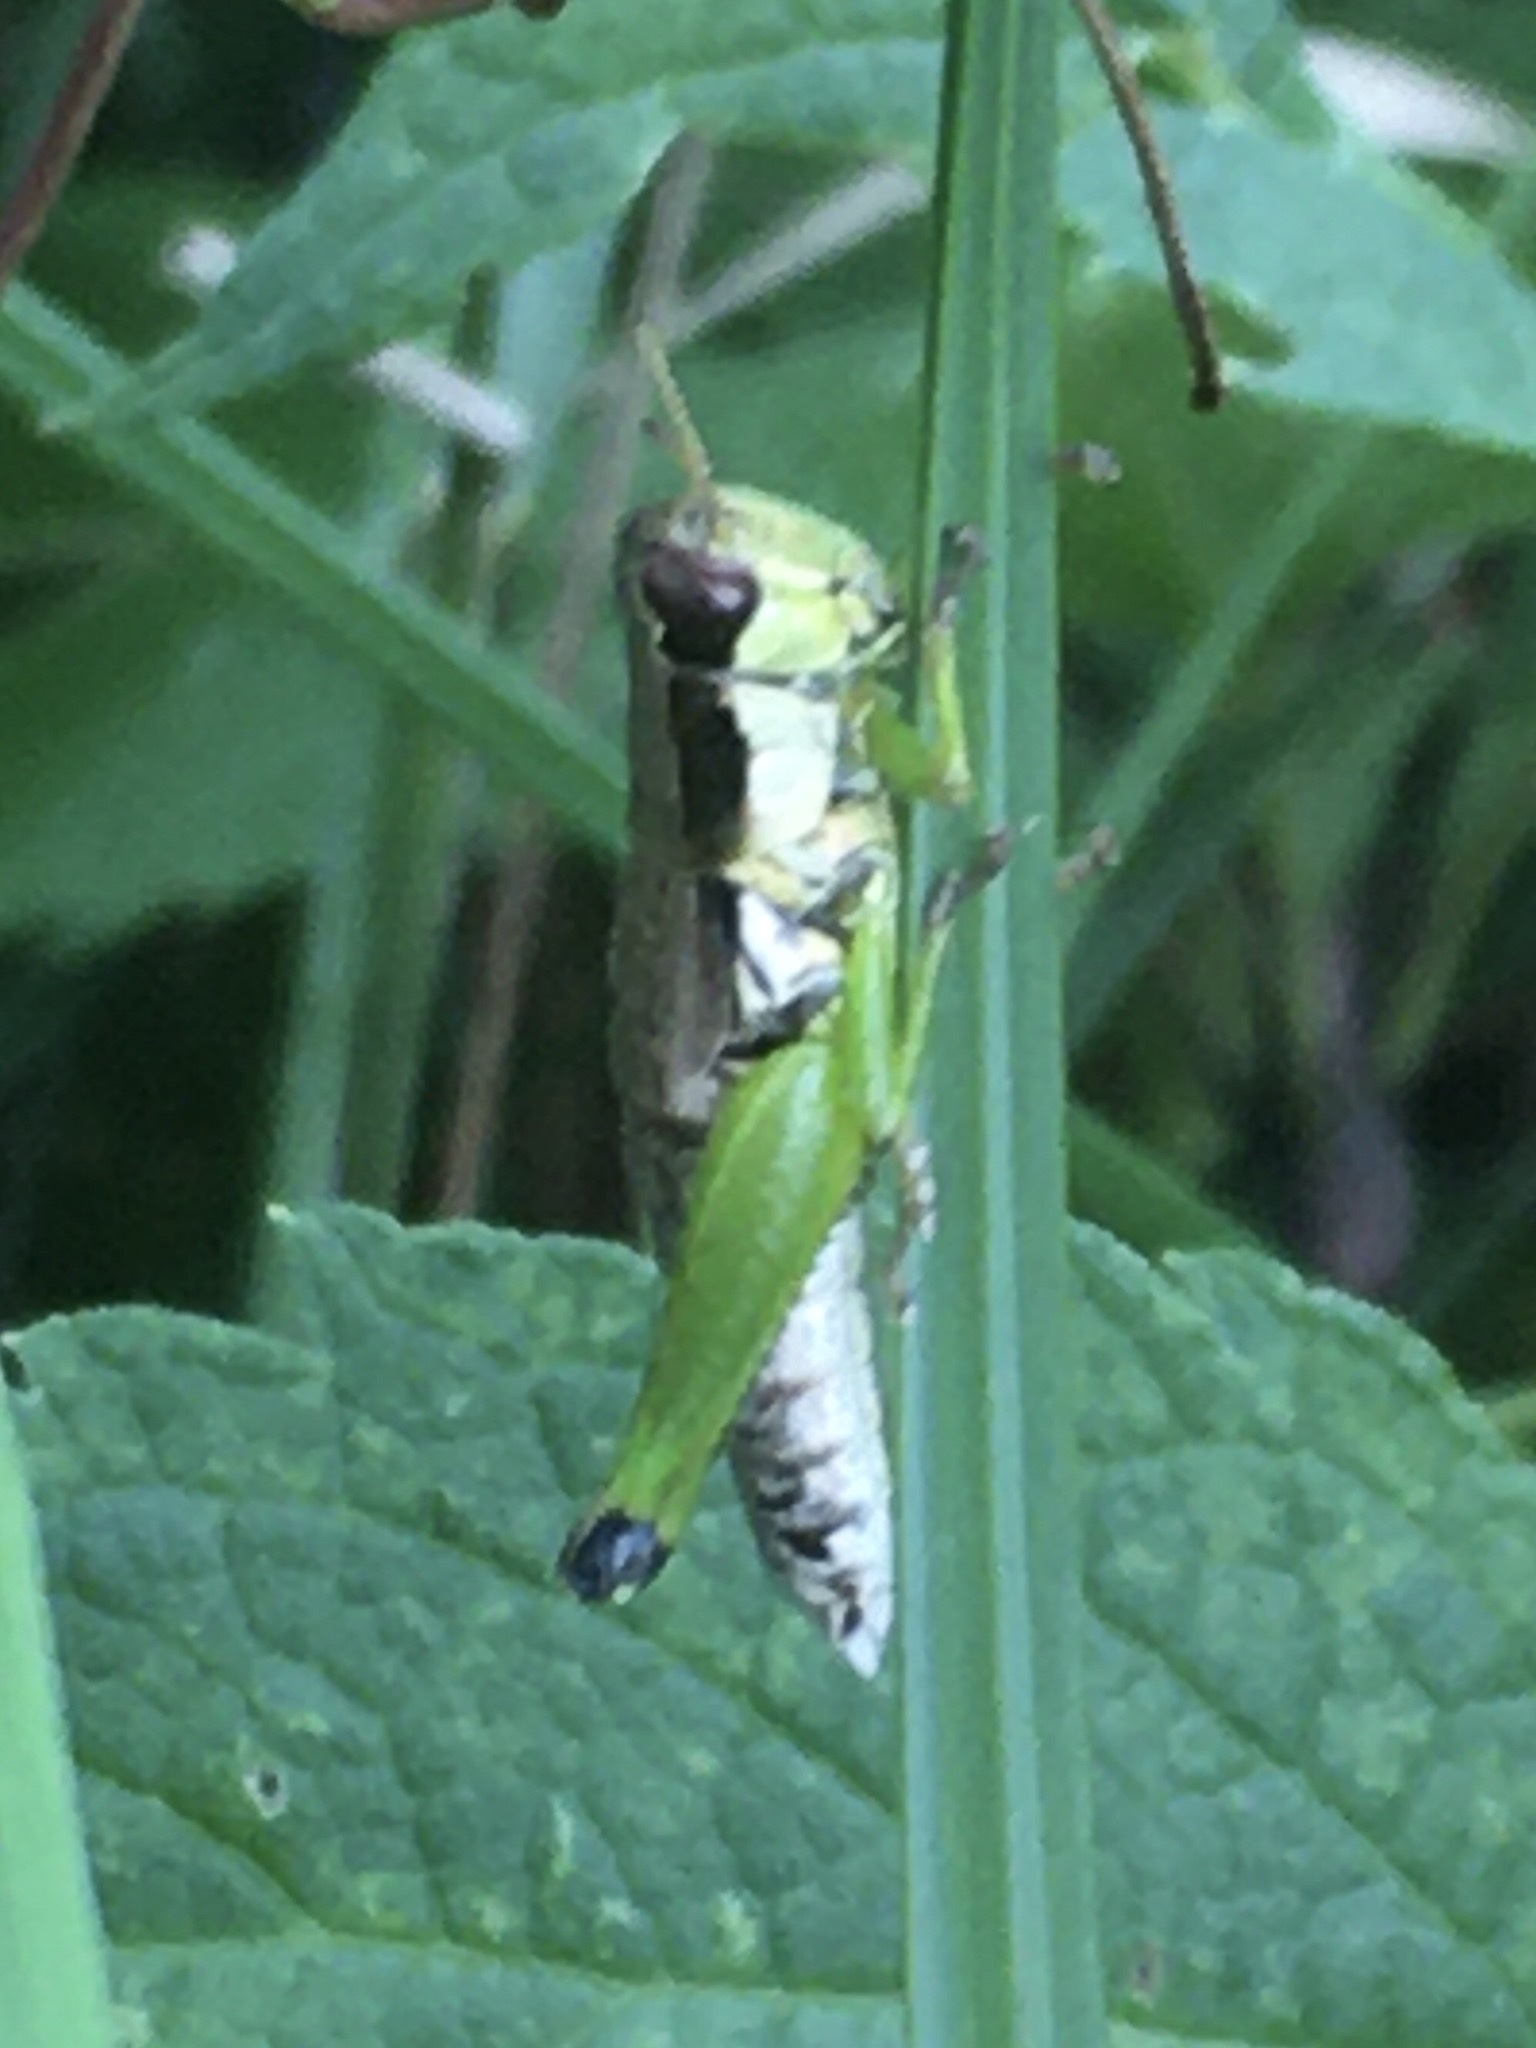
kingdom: Animalia
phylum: Arthropoda
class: Insecta
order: Orthoptera
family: Acrididae
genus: Melanoplus
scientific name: Melanoplus gracilis
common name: Graceful narrow-winged locust
